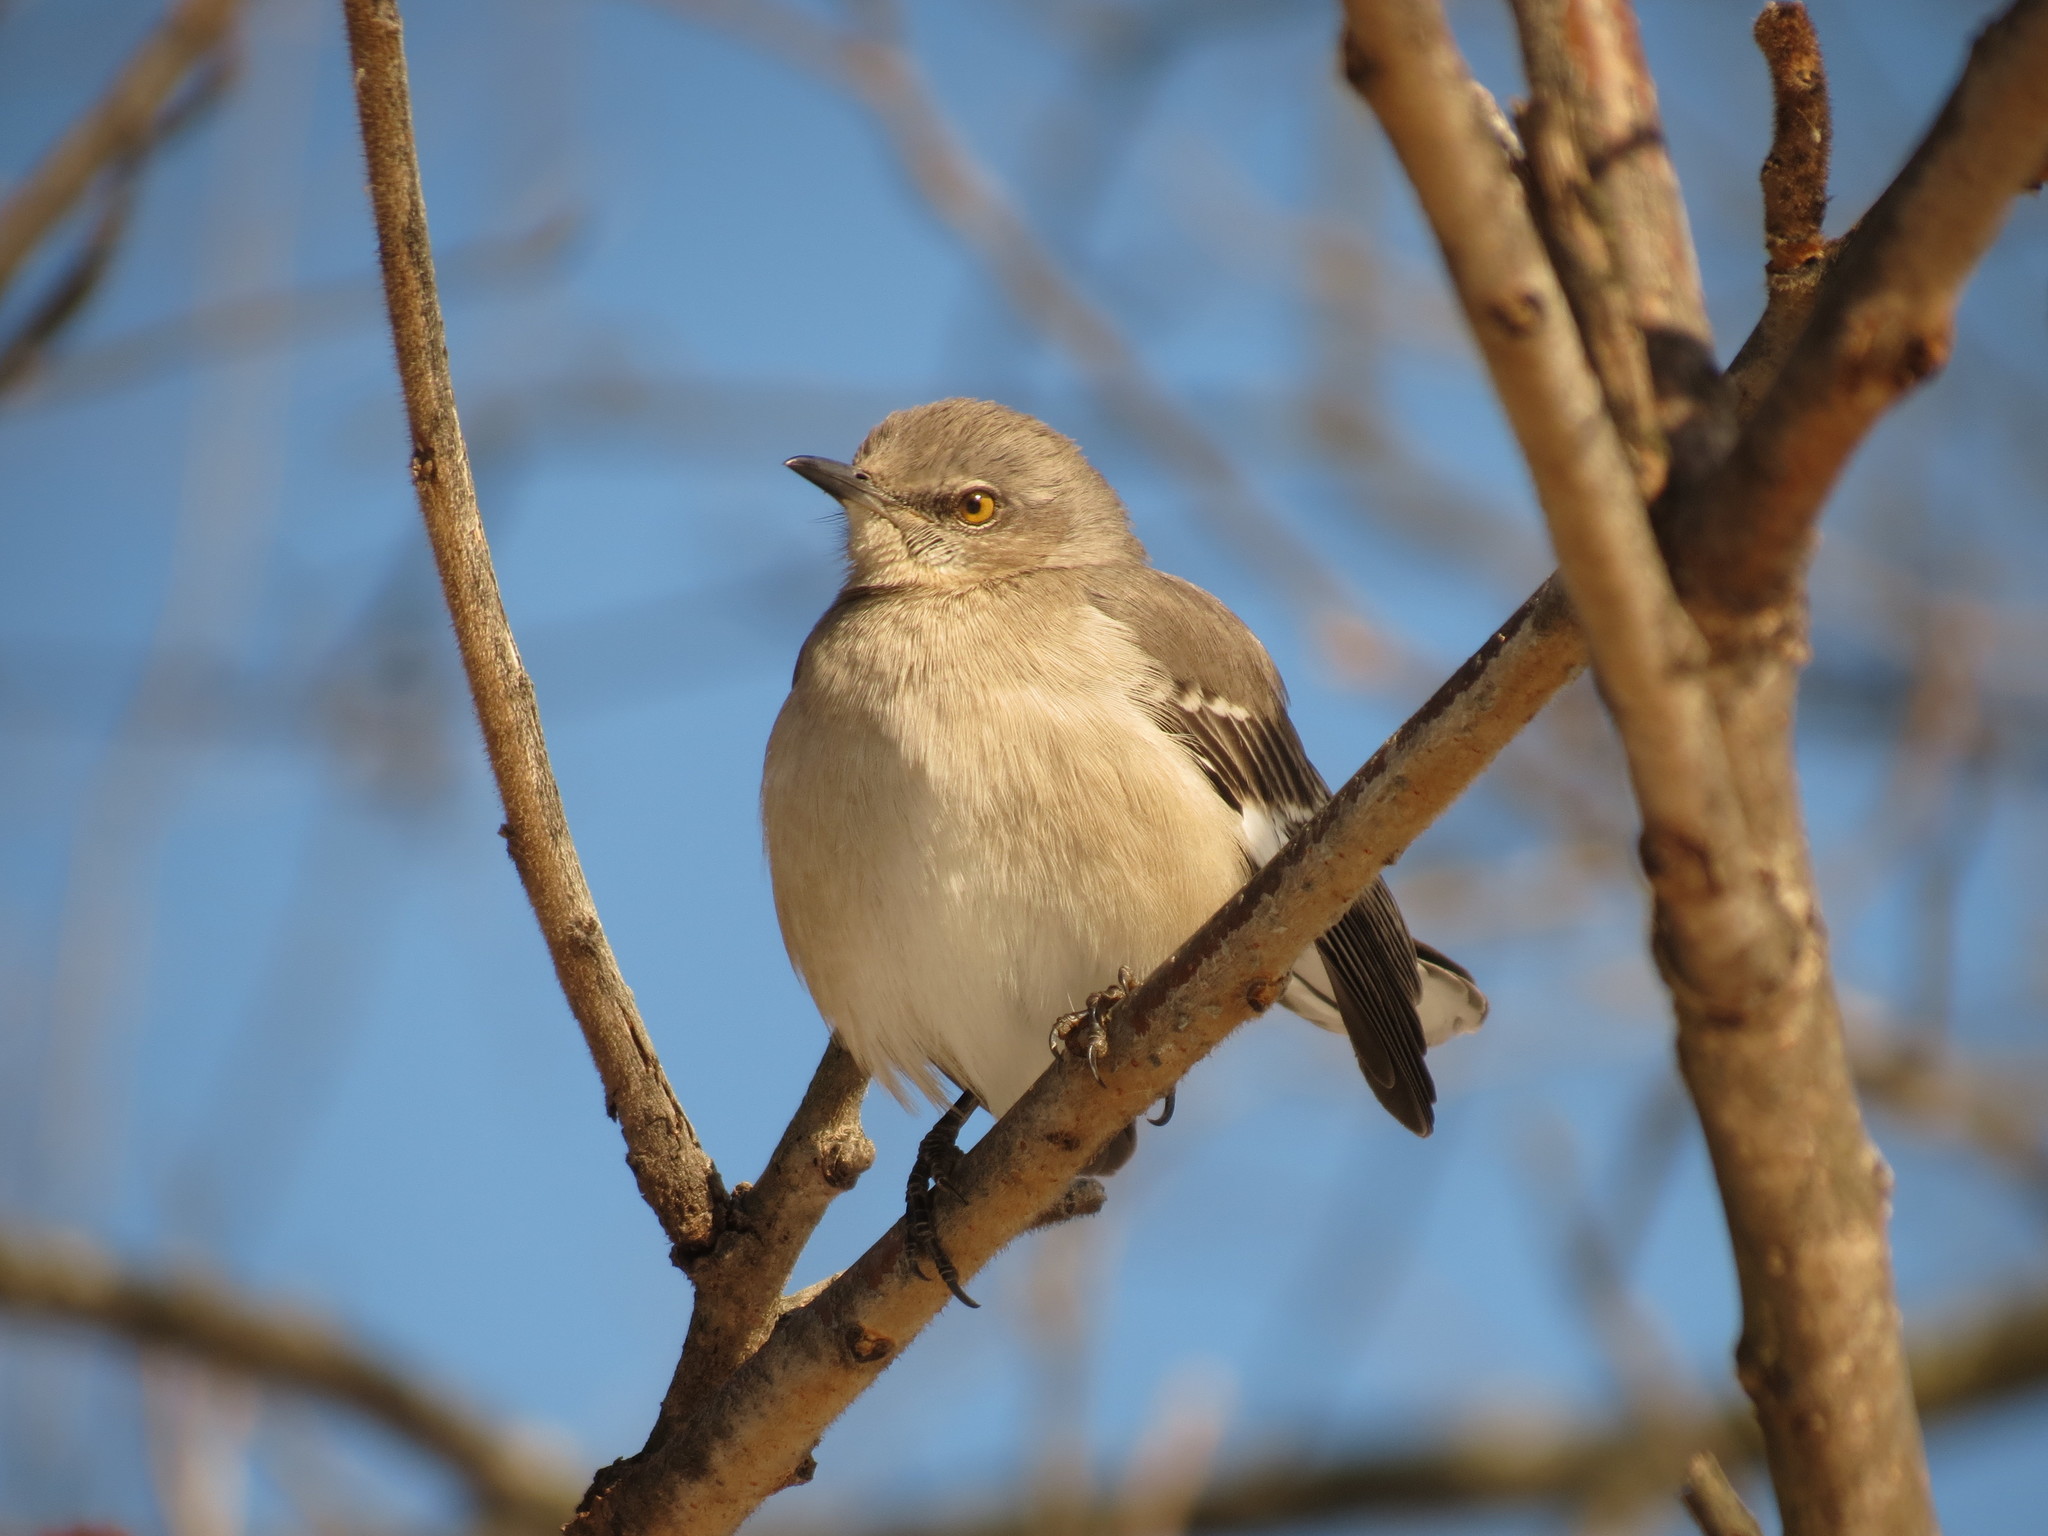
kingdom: Animalia
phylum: Chordata
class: Aves
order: Passeriformes
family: Mimidae
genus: Mimus
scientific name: Mimus polyglottos
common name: Northern mockingbird
